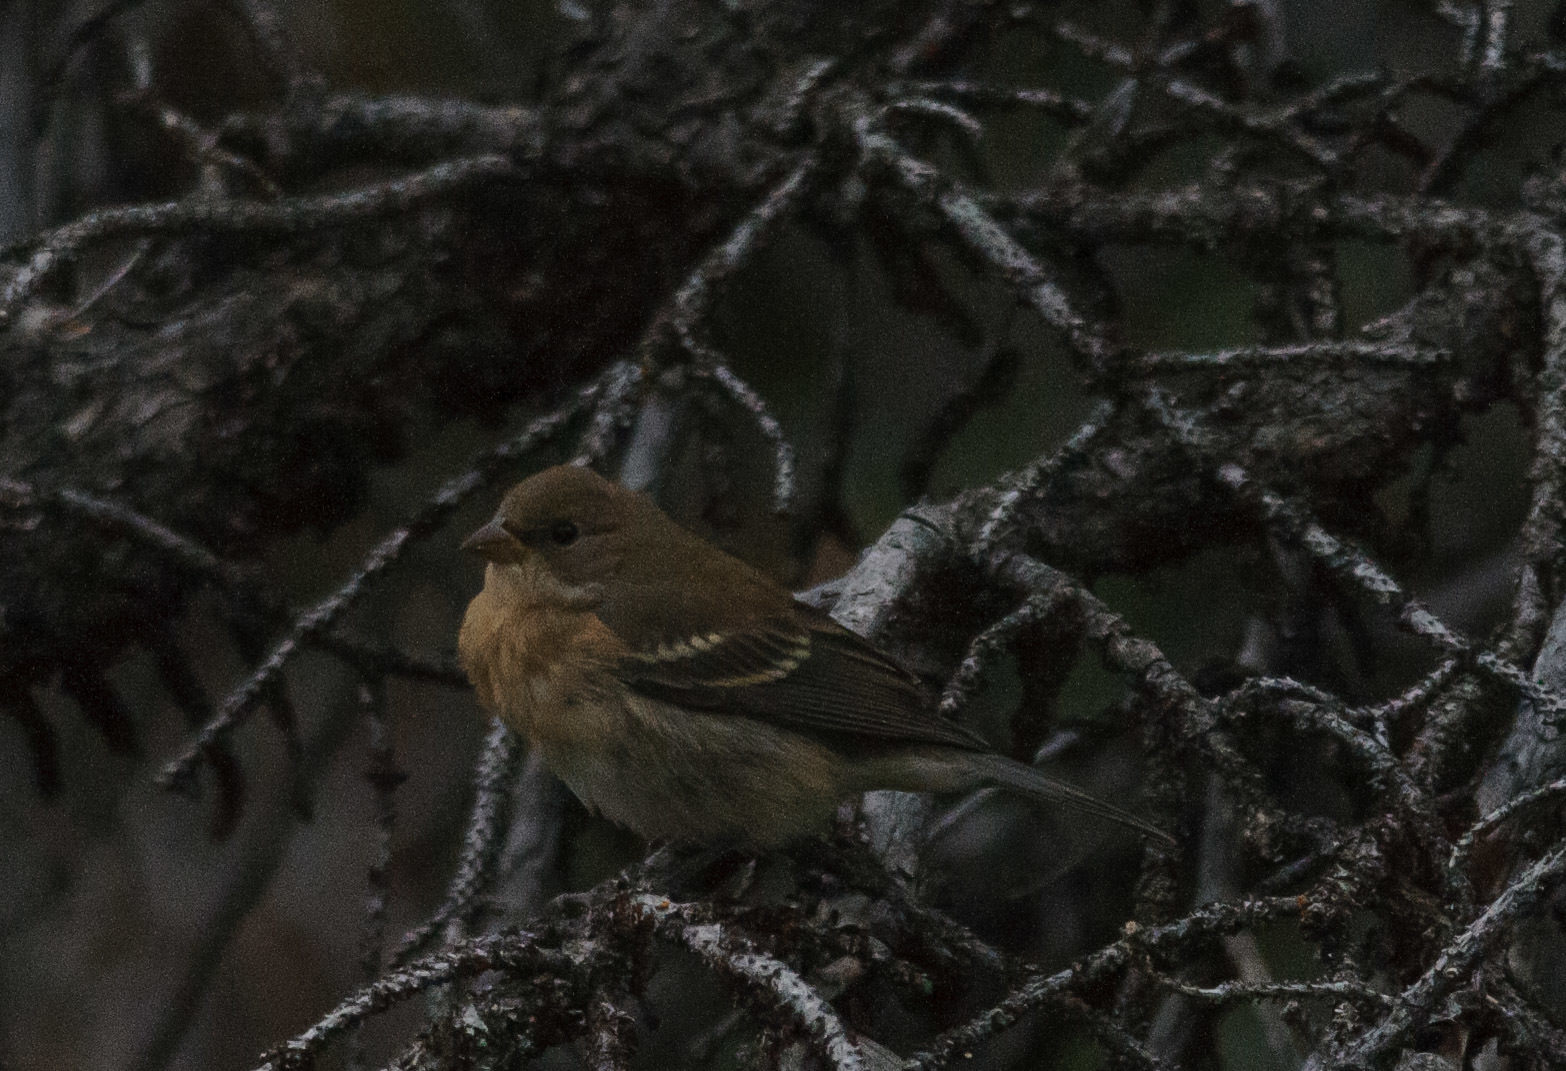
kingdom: Animalia
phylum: Chordata
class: Aves
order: Passeriformes
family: Cardinalidae
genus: Passerina
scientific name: Passerina amoena
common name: Lazuli bunting
